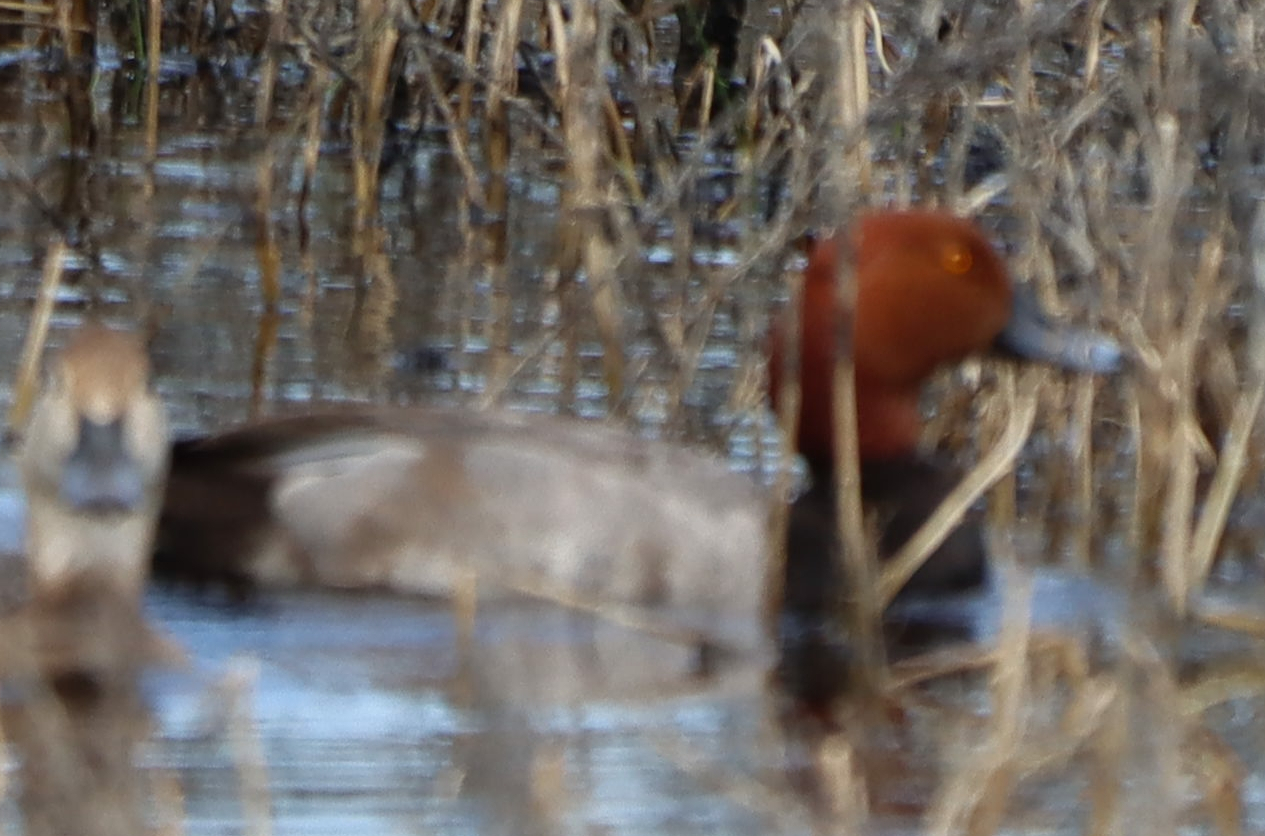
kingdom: Animalia
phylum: Chordata
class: Aves
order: Anseriformes
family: Anatidae
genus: Aythya
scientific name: Aythya americana
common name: Redhead
